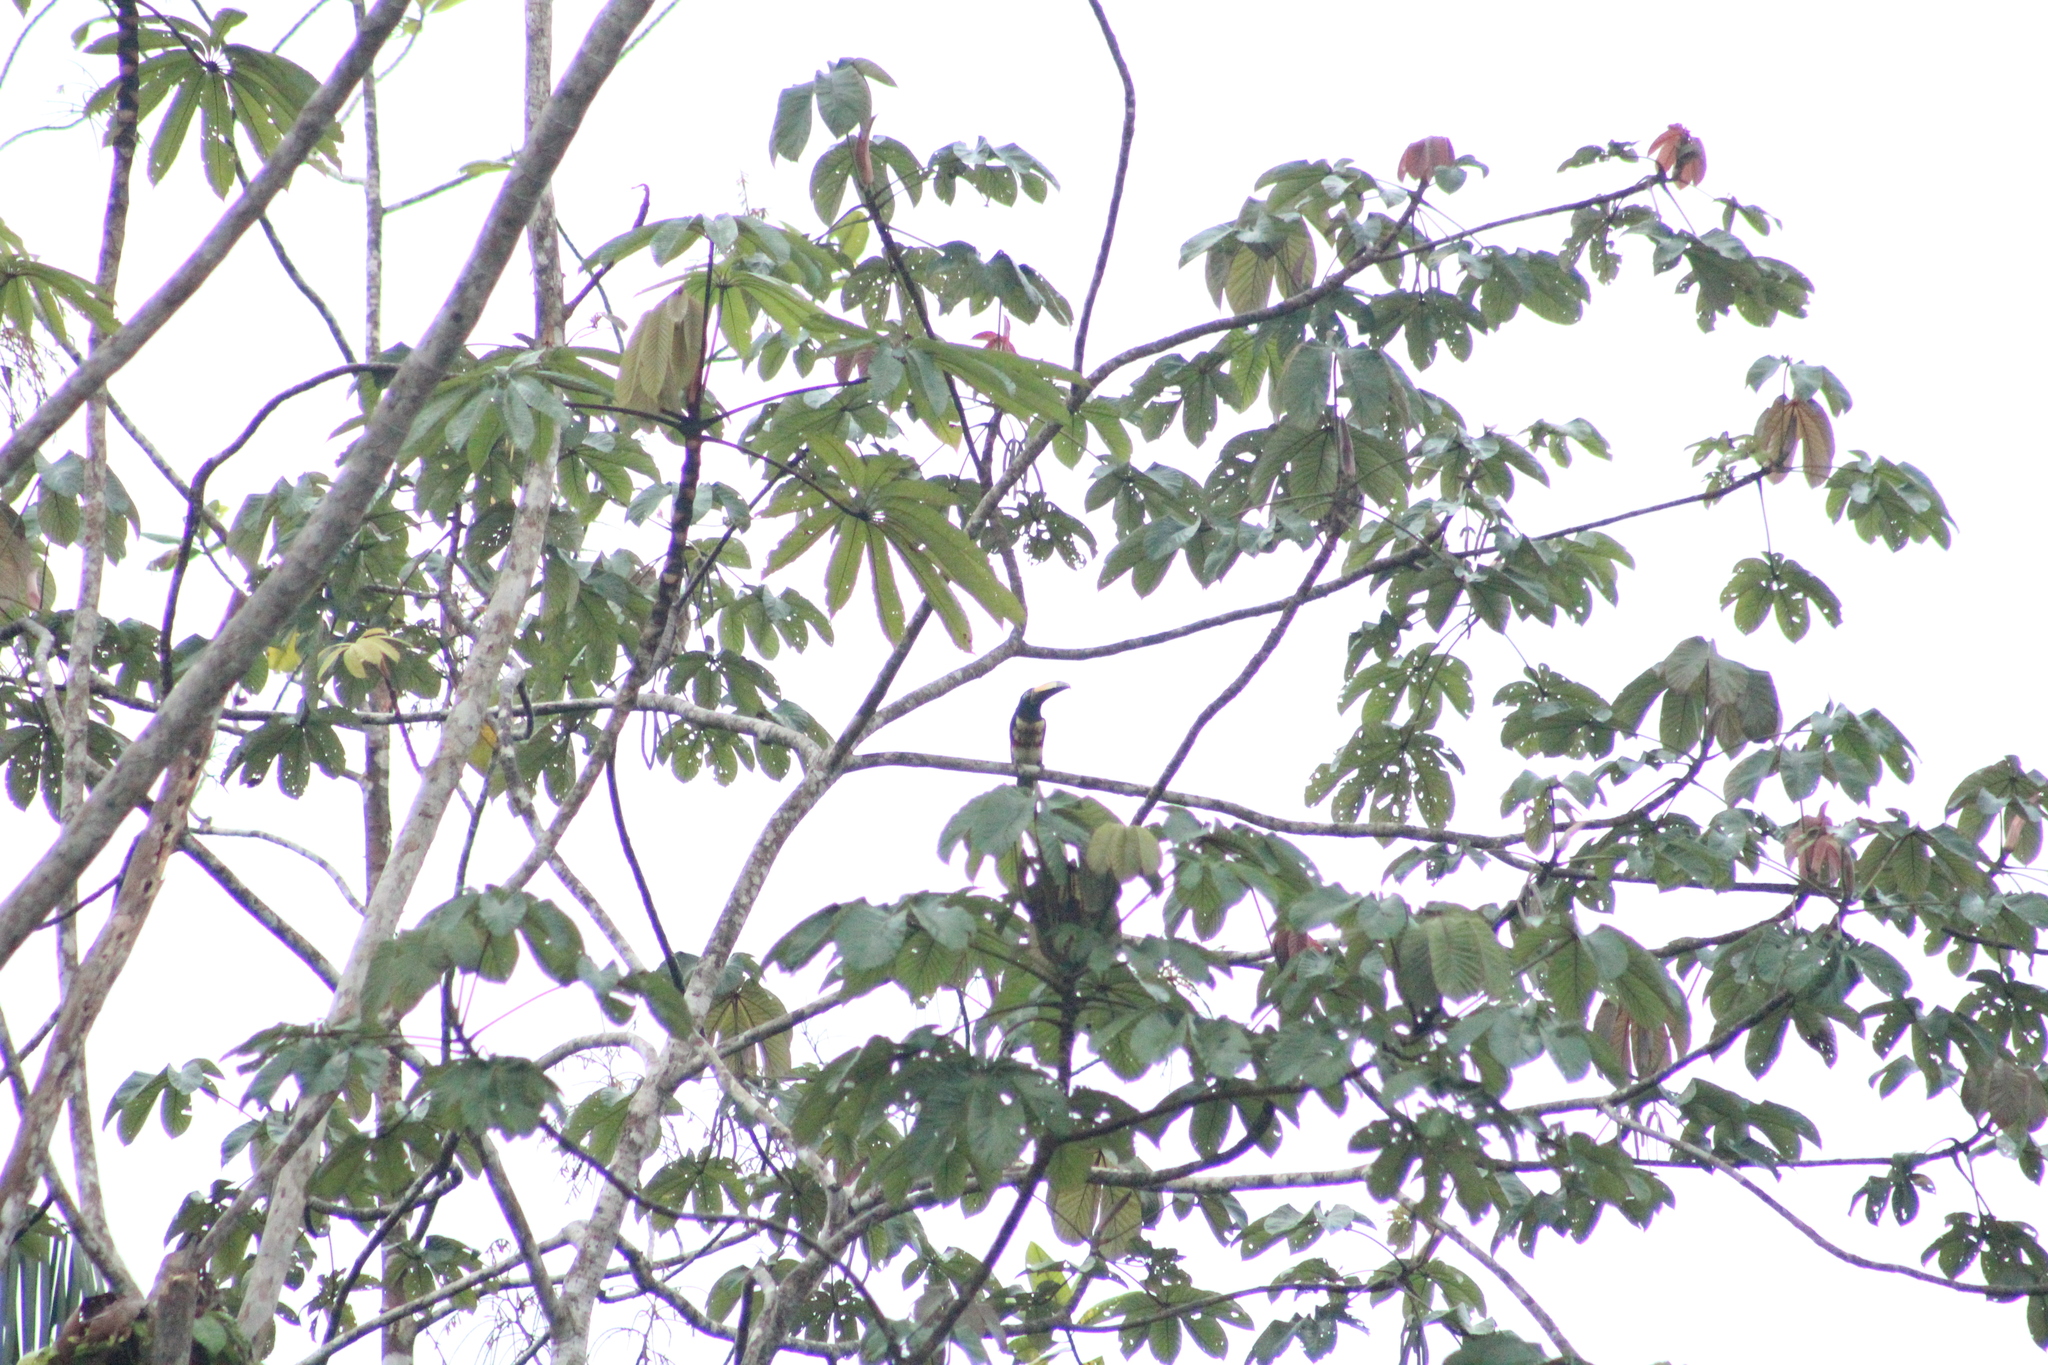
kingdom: Animalia
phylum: Chordata
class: Aves
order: Piciformes
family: Ramphastidae
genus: Pteroglossus
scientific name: Pteroglossus pluricinctus
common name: Many-banded aracari
